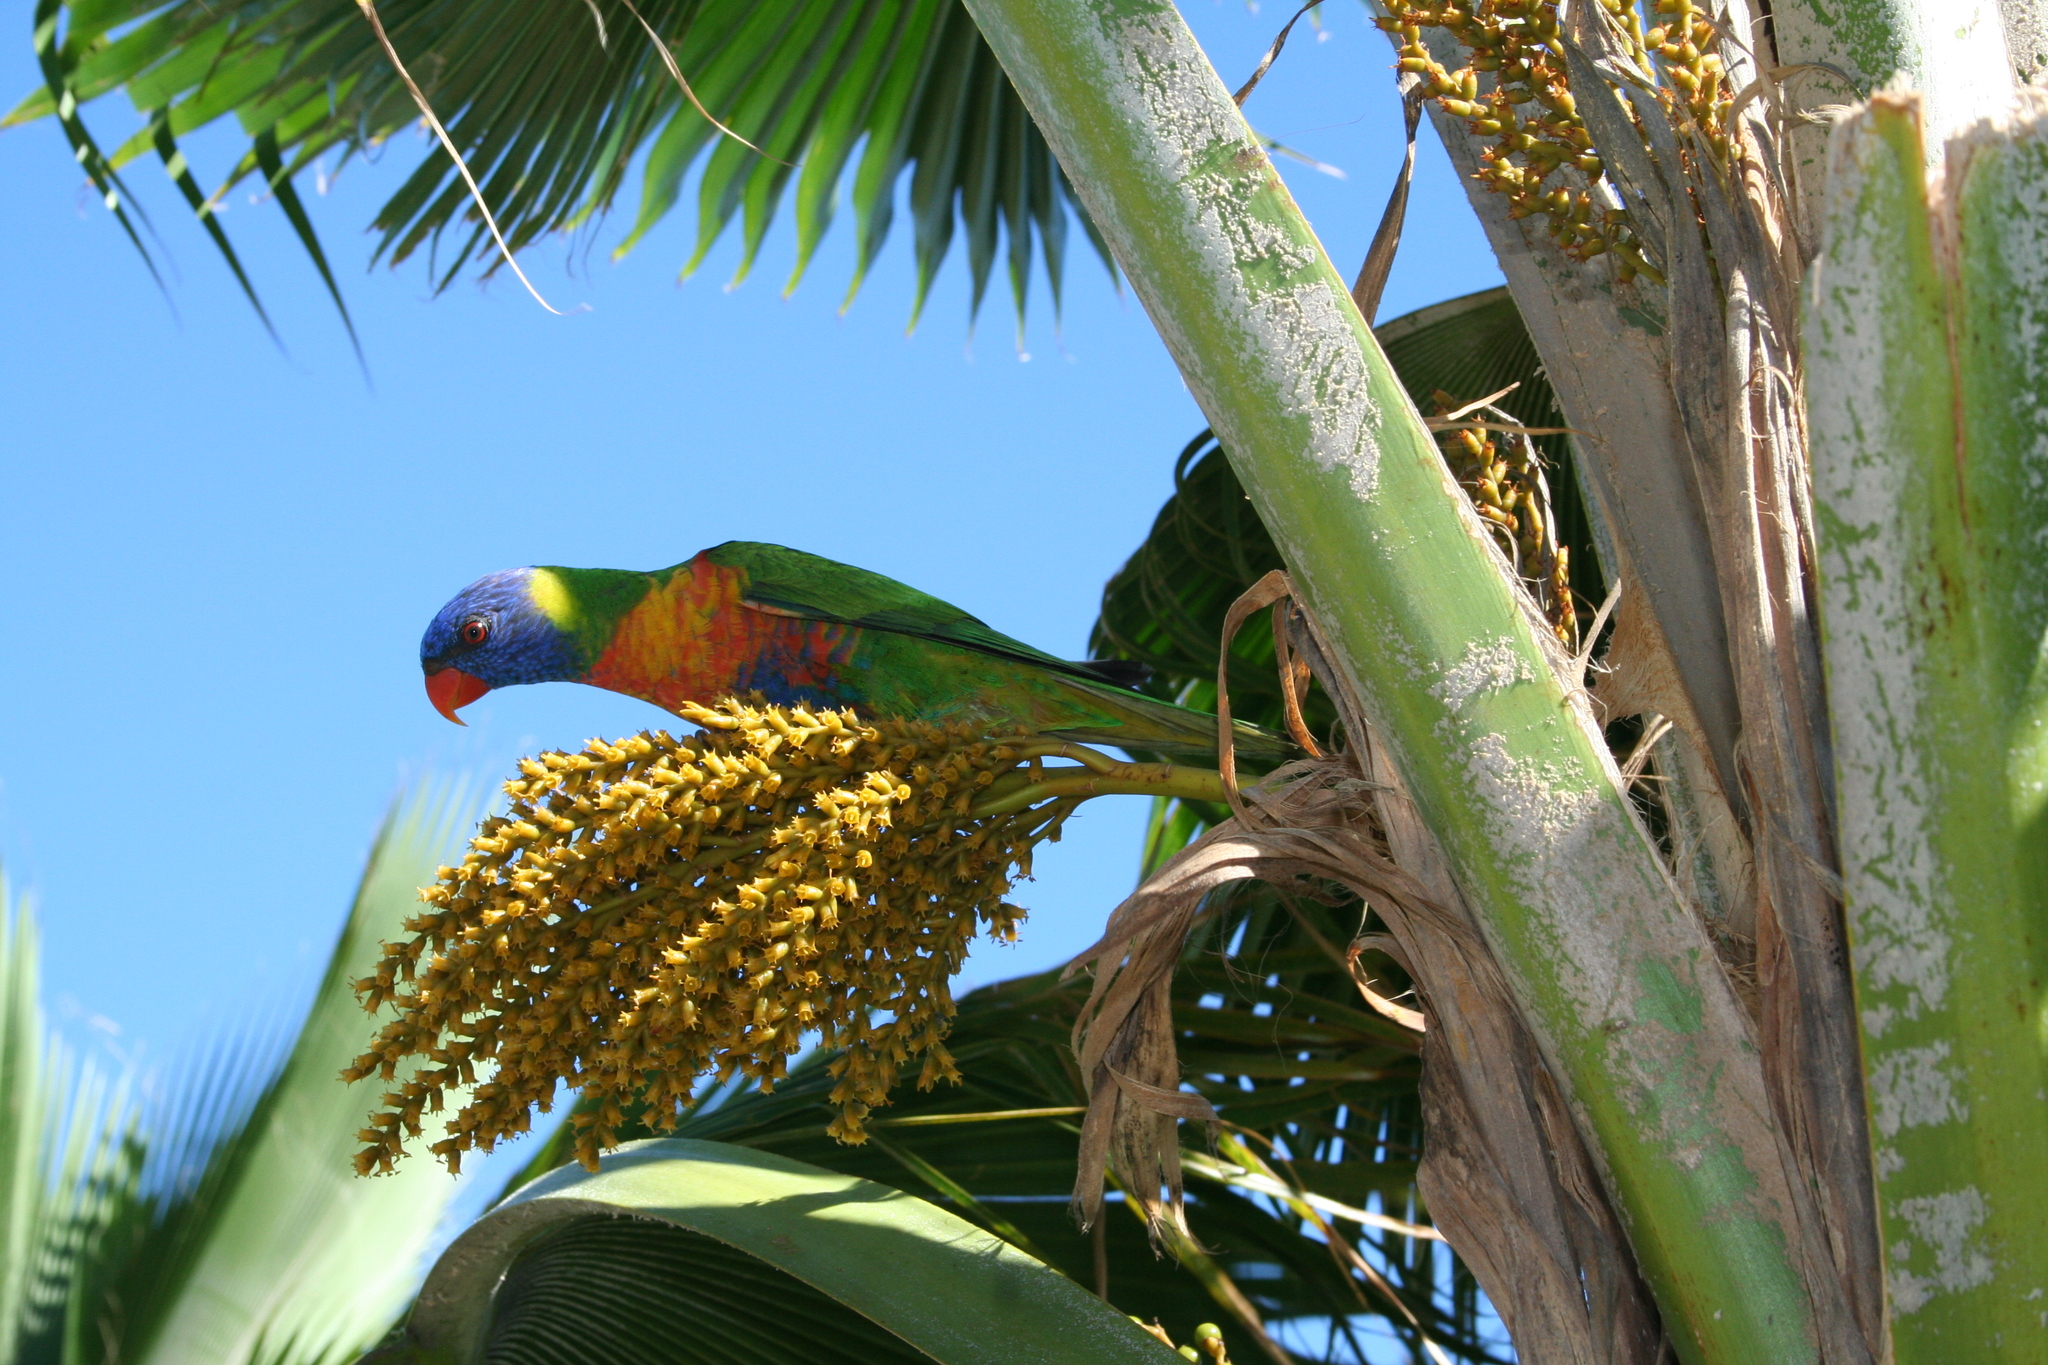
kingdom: Animalia
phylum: Chordata
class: Aves
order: Psittaciformes
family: Psittacidae
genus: Trichoglossus
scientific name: Trichoglossus haematodus
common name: Coconut lorikeet
